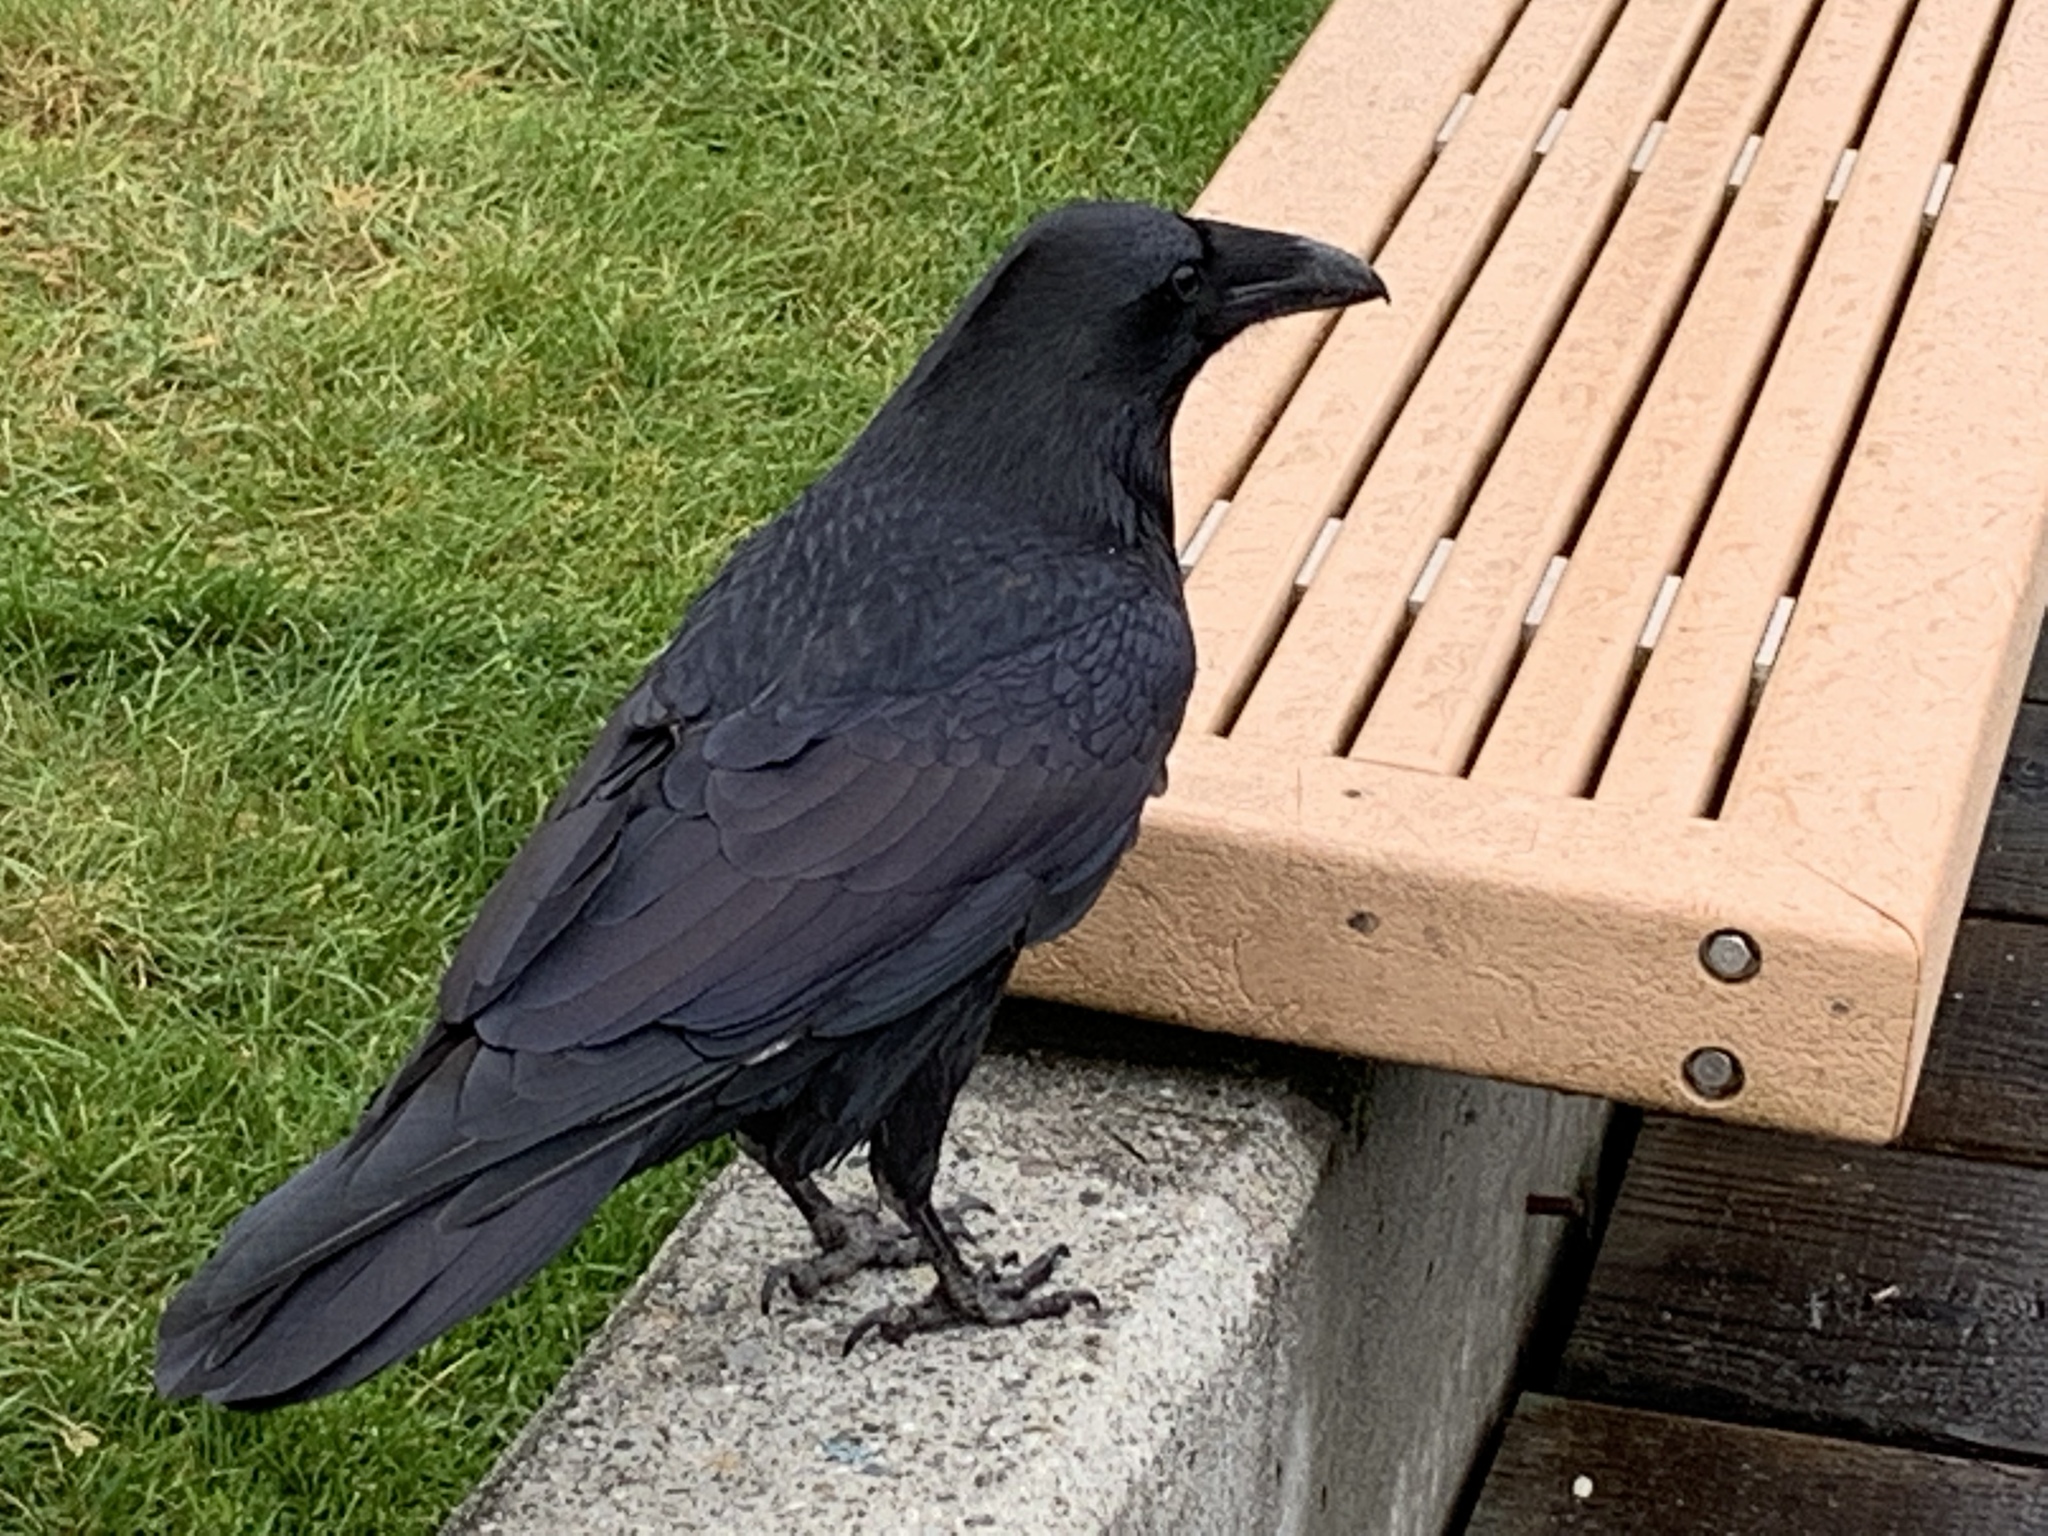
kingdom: Animalia
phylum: Chordata
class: Aves
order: Passeriformes
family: Corvidae
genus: Corvus
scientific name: Corvus corax
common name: Common raven
